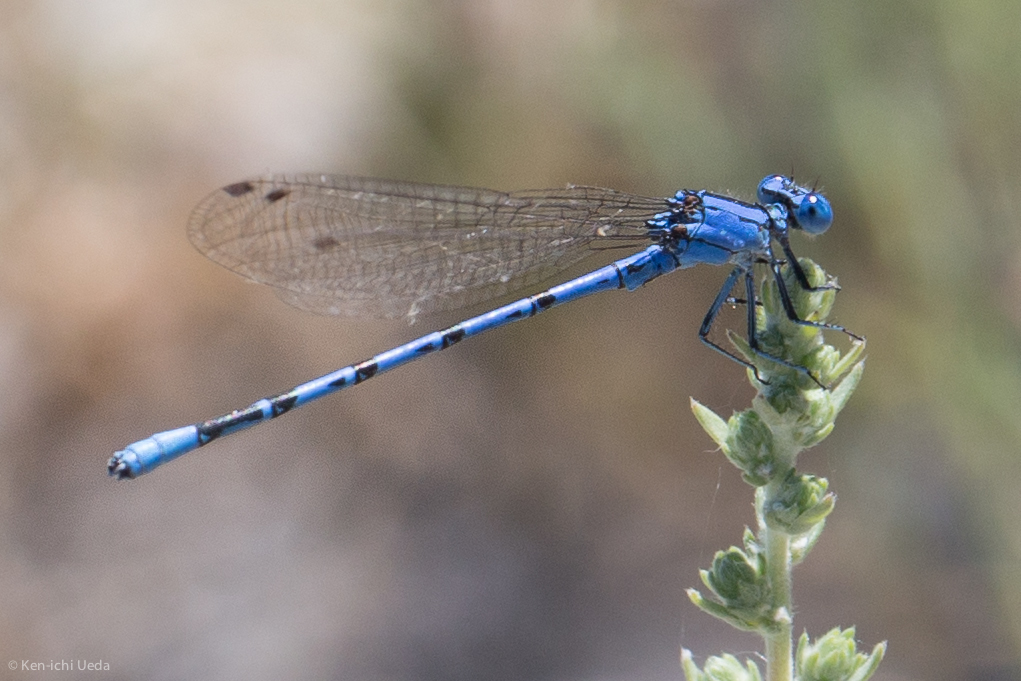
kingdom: Animalia
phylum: Arthropoda
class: Insecta
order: Odonata
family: Coenagrionidae
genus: Argia
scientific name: Argia vivida
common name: Vivid dancer
